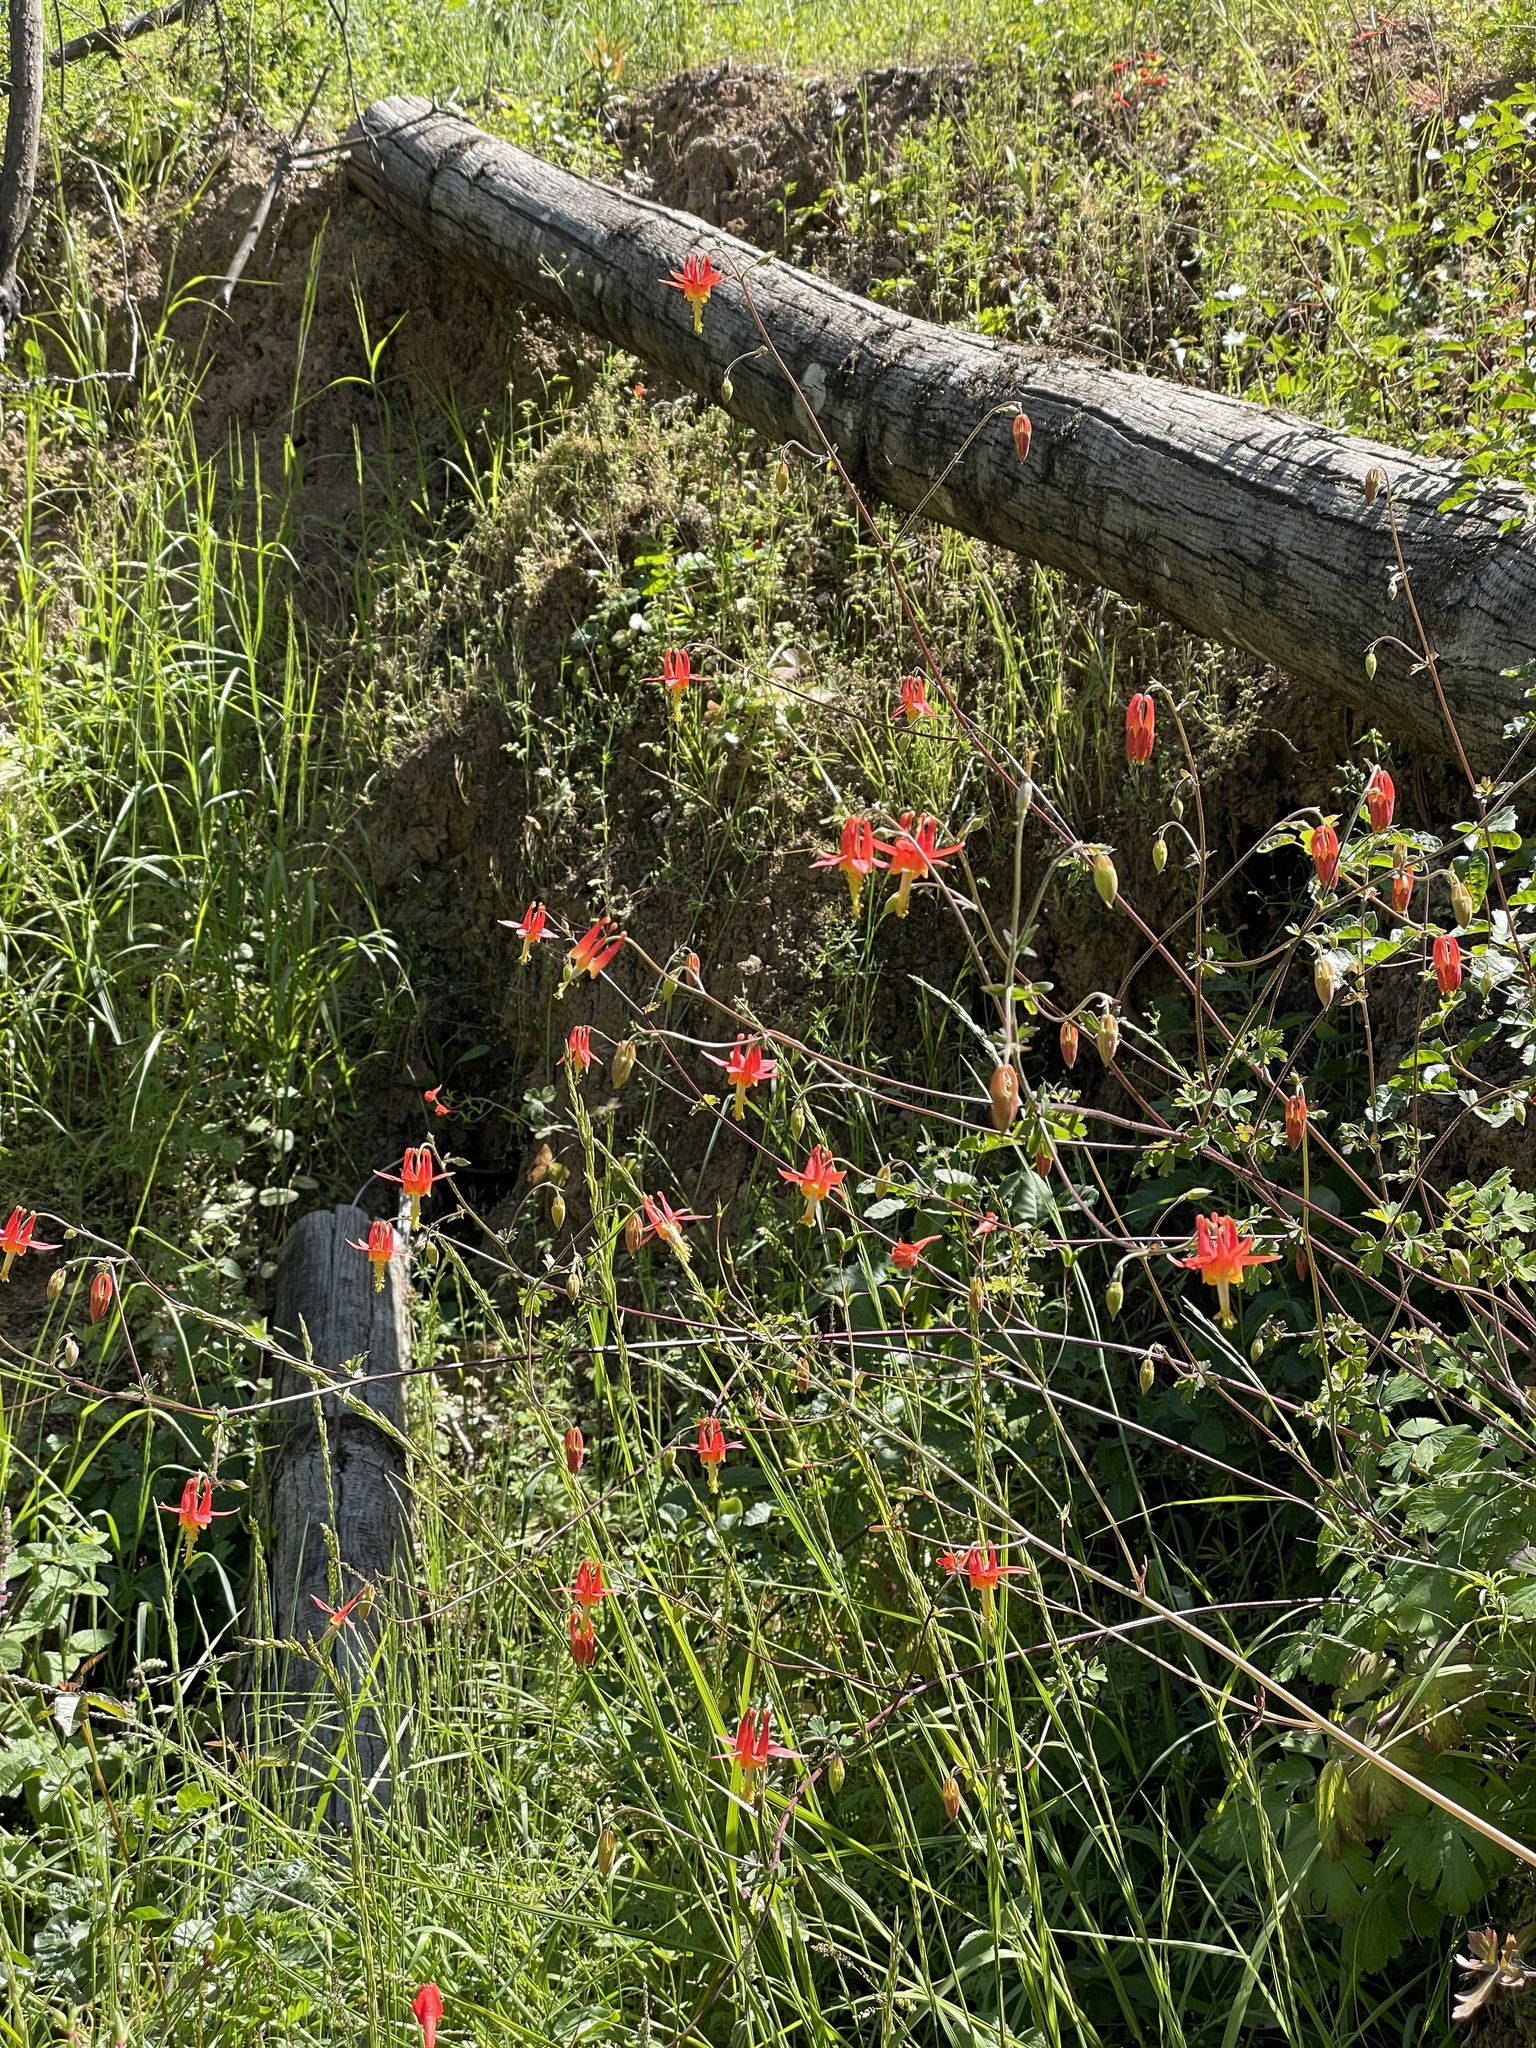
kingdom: Plantae
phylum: Tracheophyta
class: Magnoliopsida
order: Ranunculales
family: Ranunculaceae
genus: Aquilegia
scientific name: Aquilegia formosa
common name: Sitka columbine
